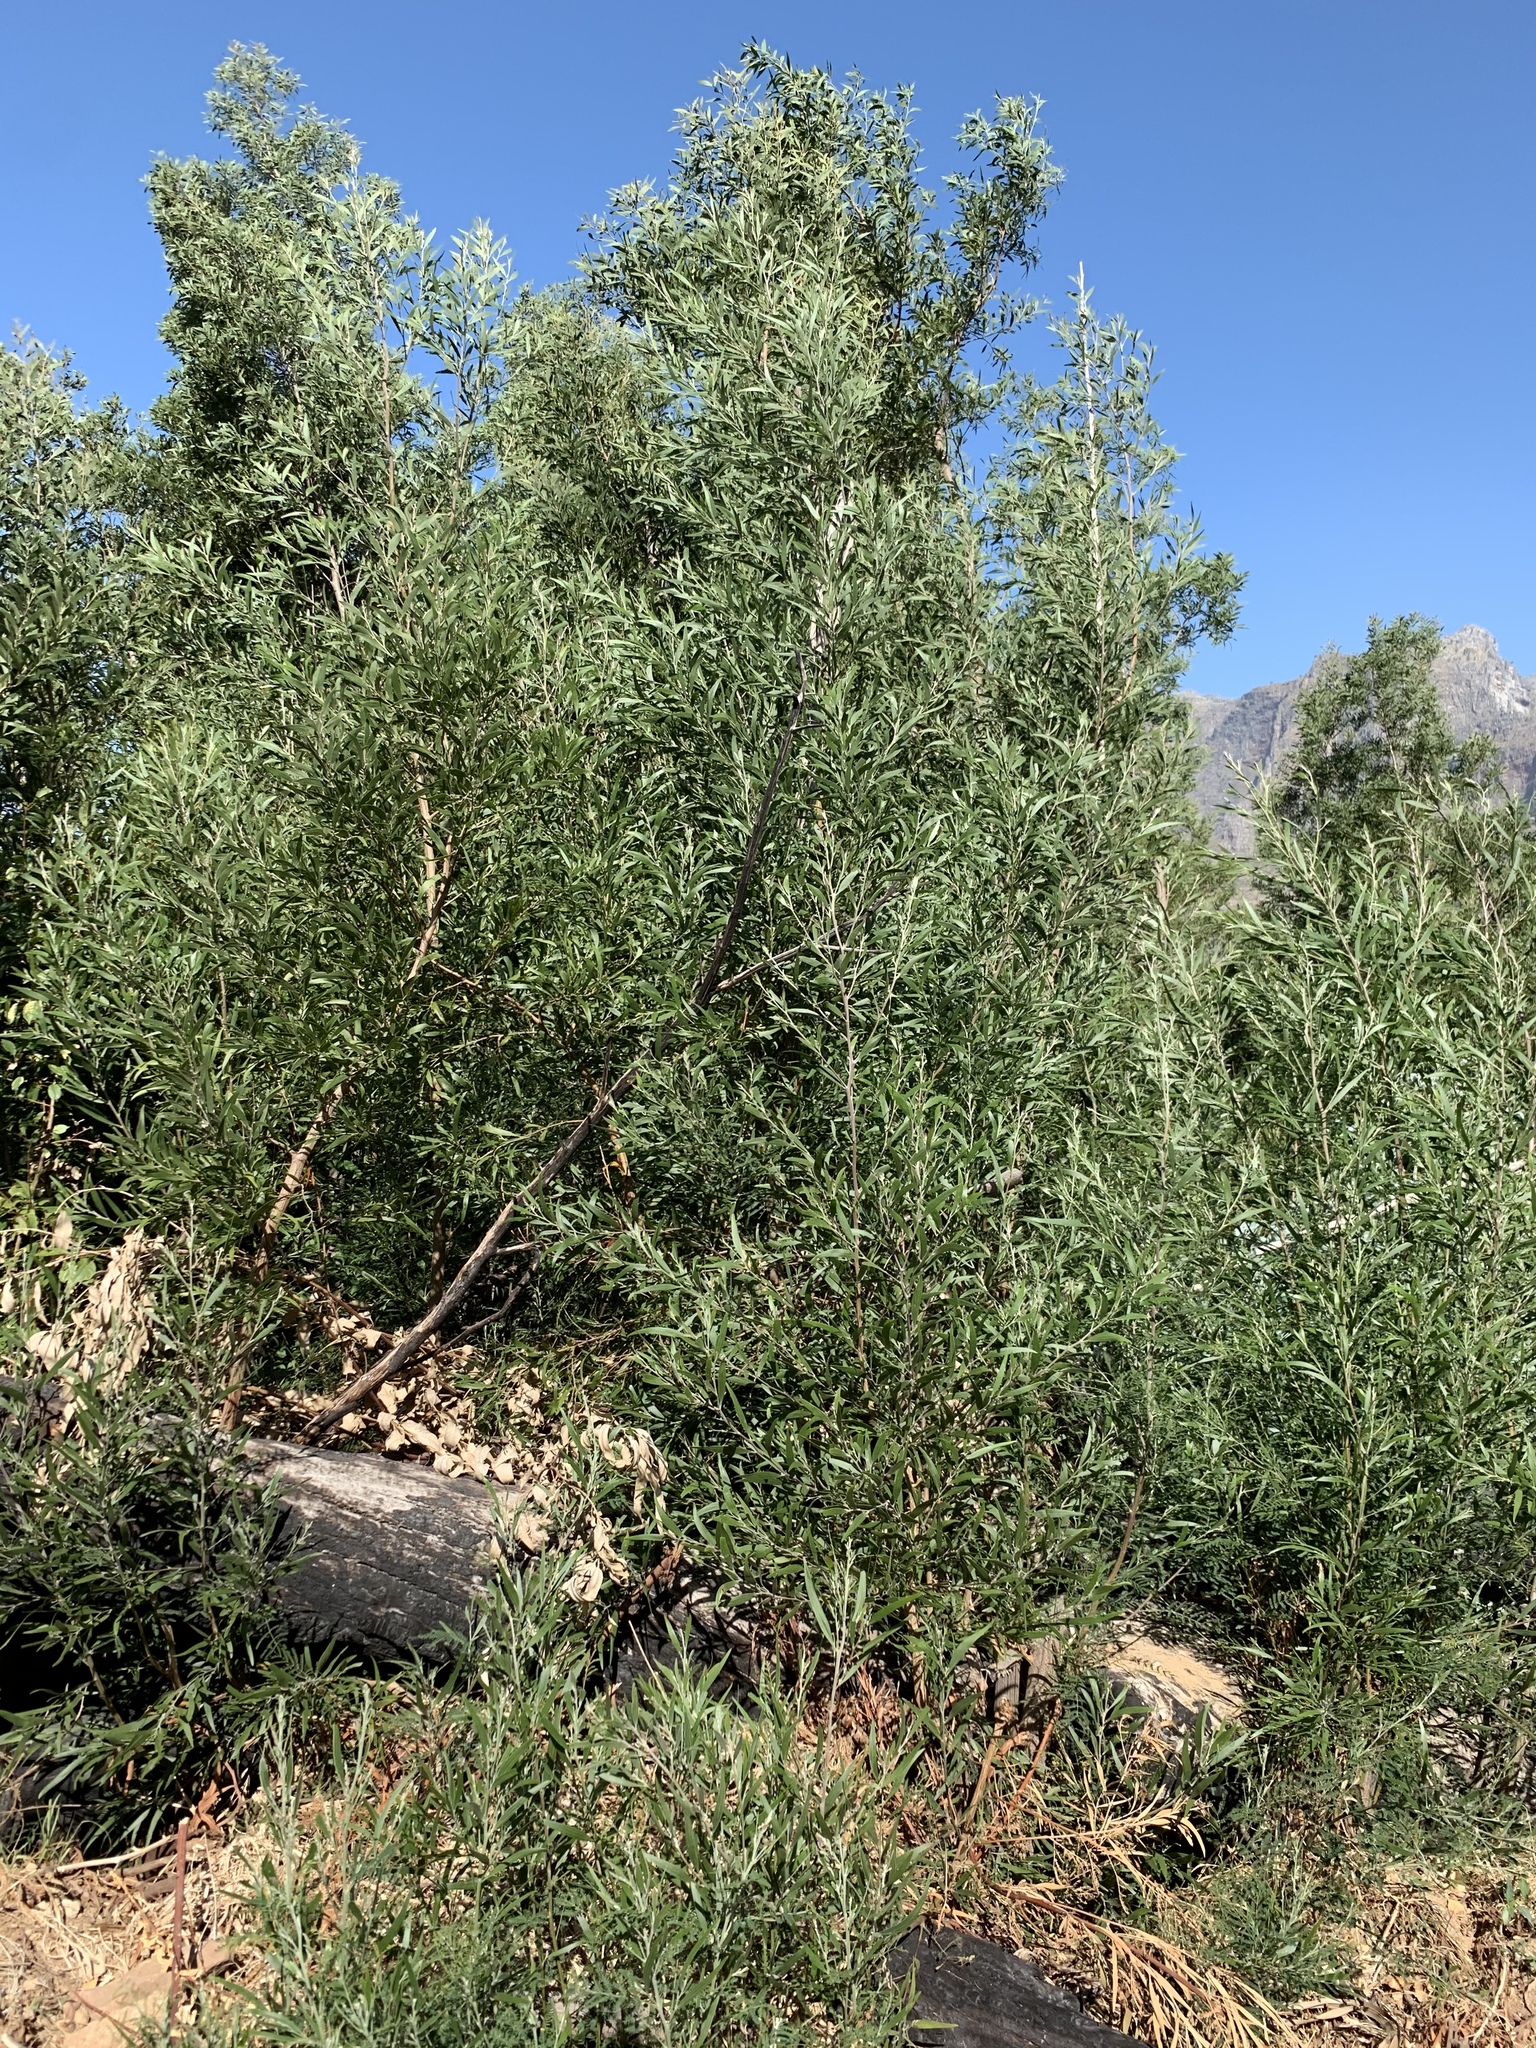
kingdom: Plantae
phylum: Tracheophyta
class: Magnoliopsida
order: Fabales
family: Fabaceae
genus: Acacia
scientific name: Acacia melanoxylon
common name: Blackwood
